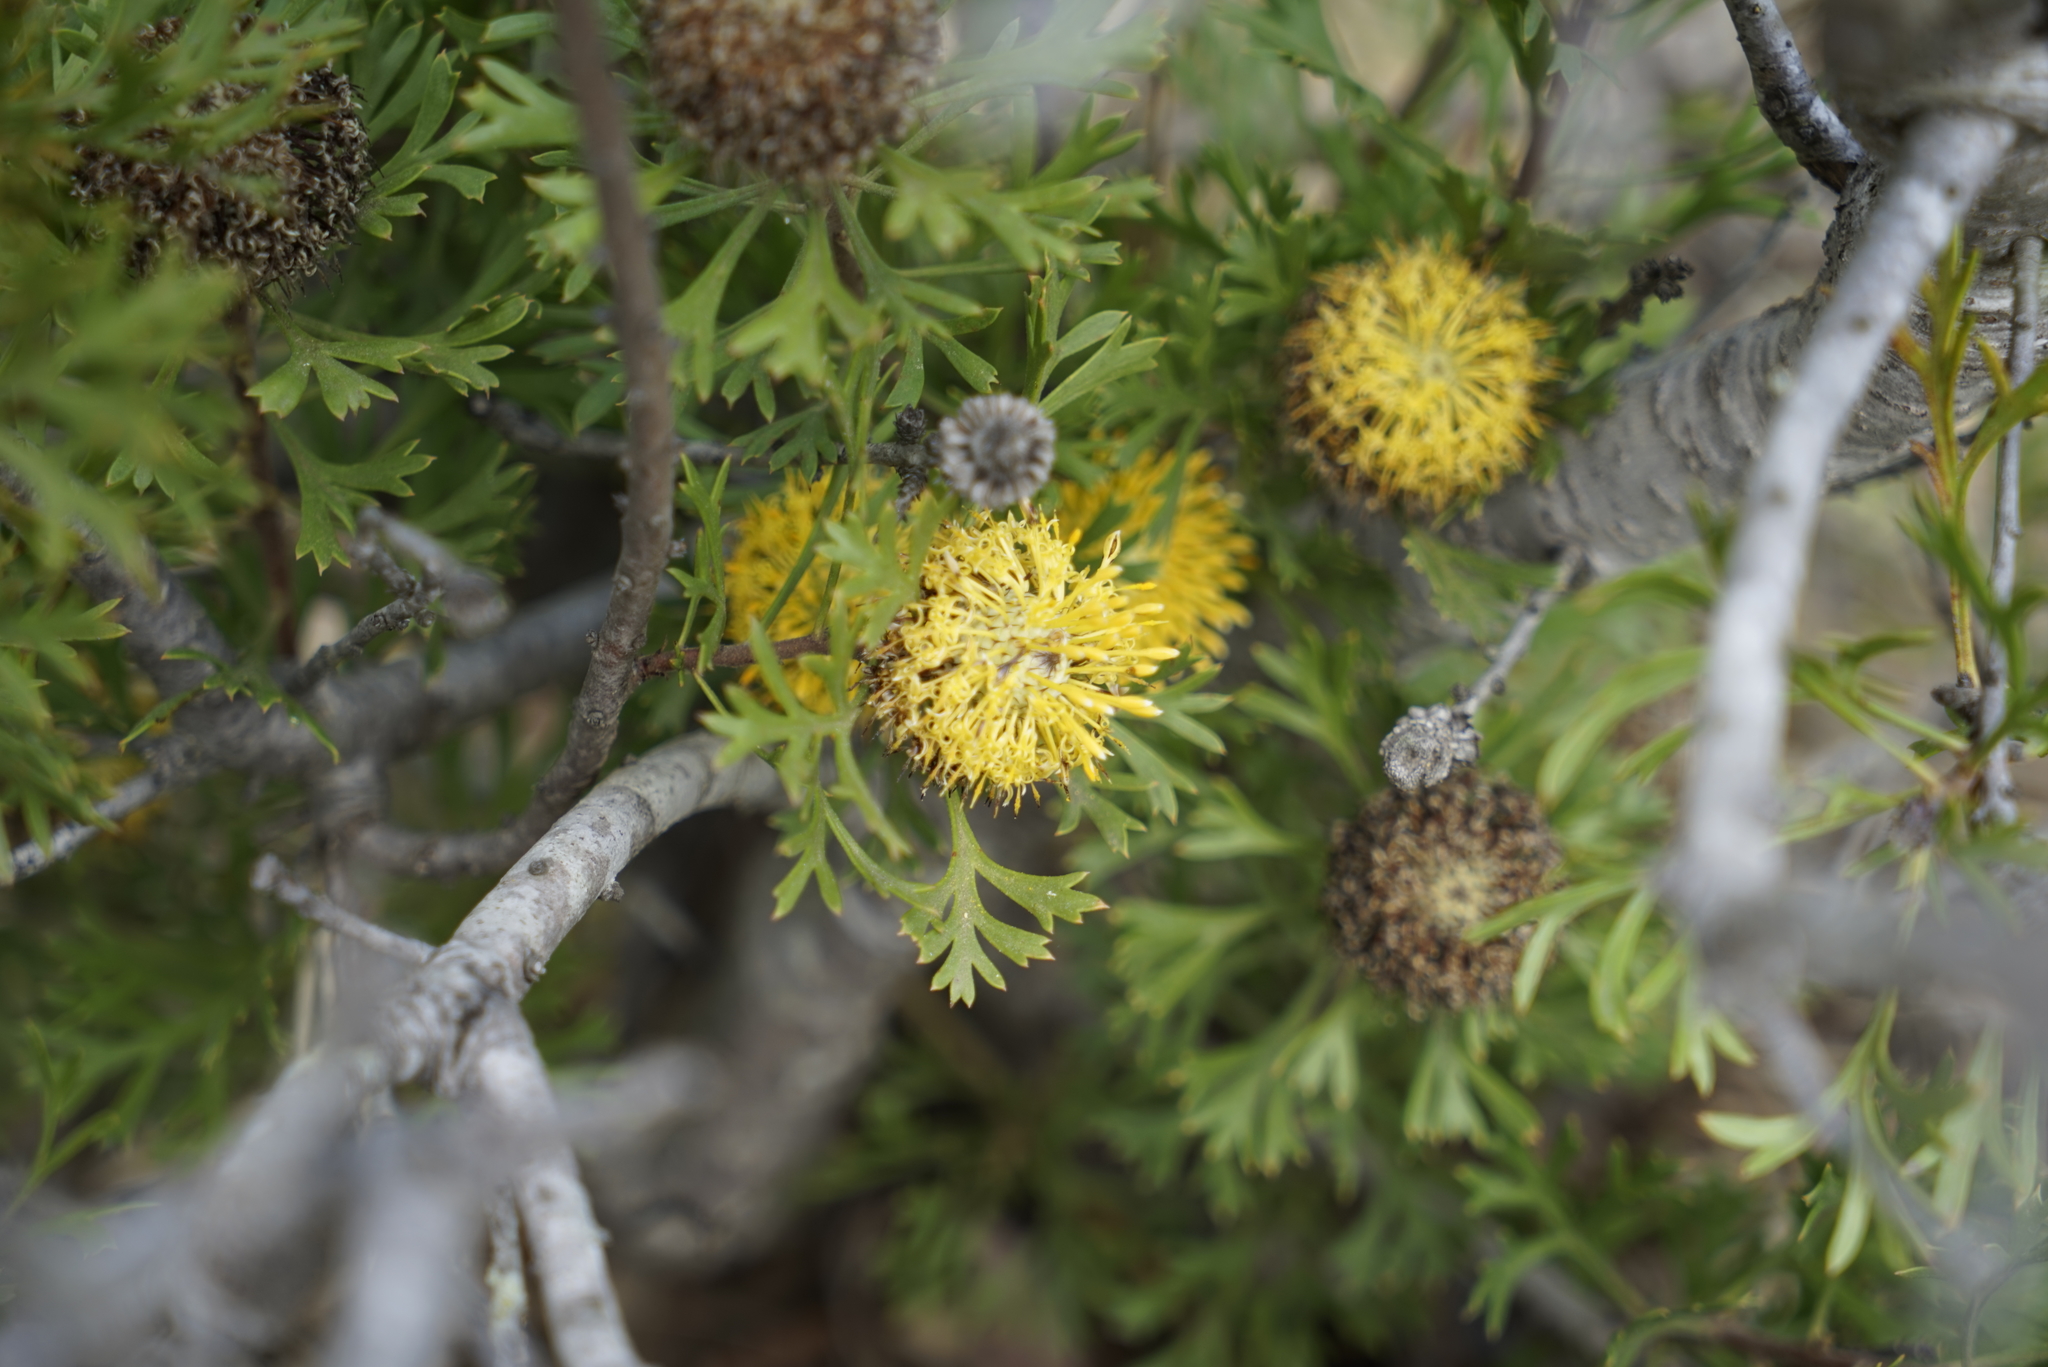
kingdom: Plantae
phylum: Tracheophyta
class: Magnoliopsida
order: Proteales
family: Proteaceae
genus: Isopogon
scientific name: Isopogon anemonifolius
